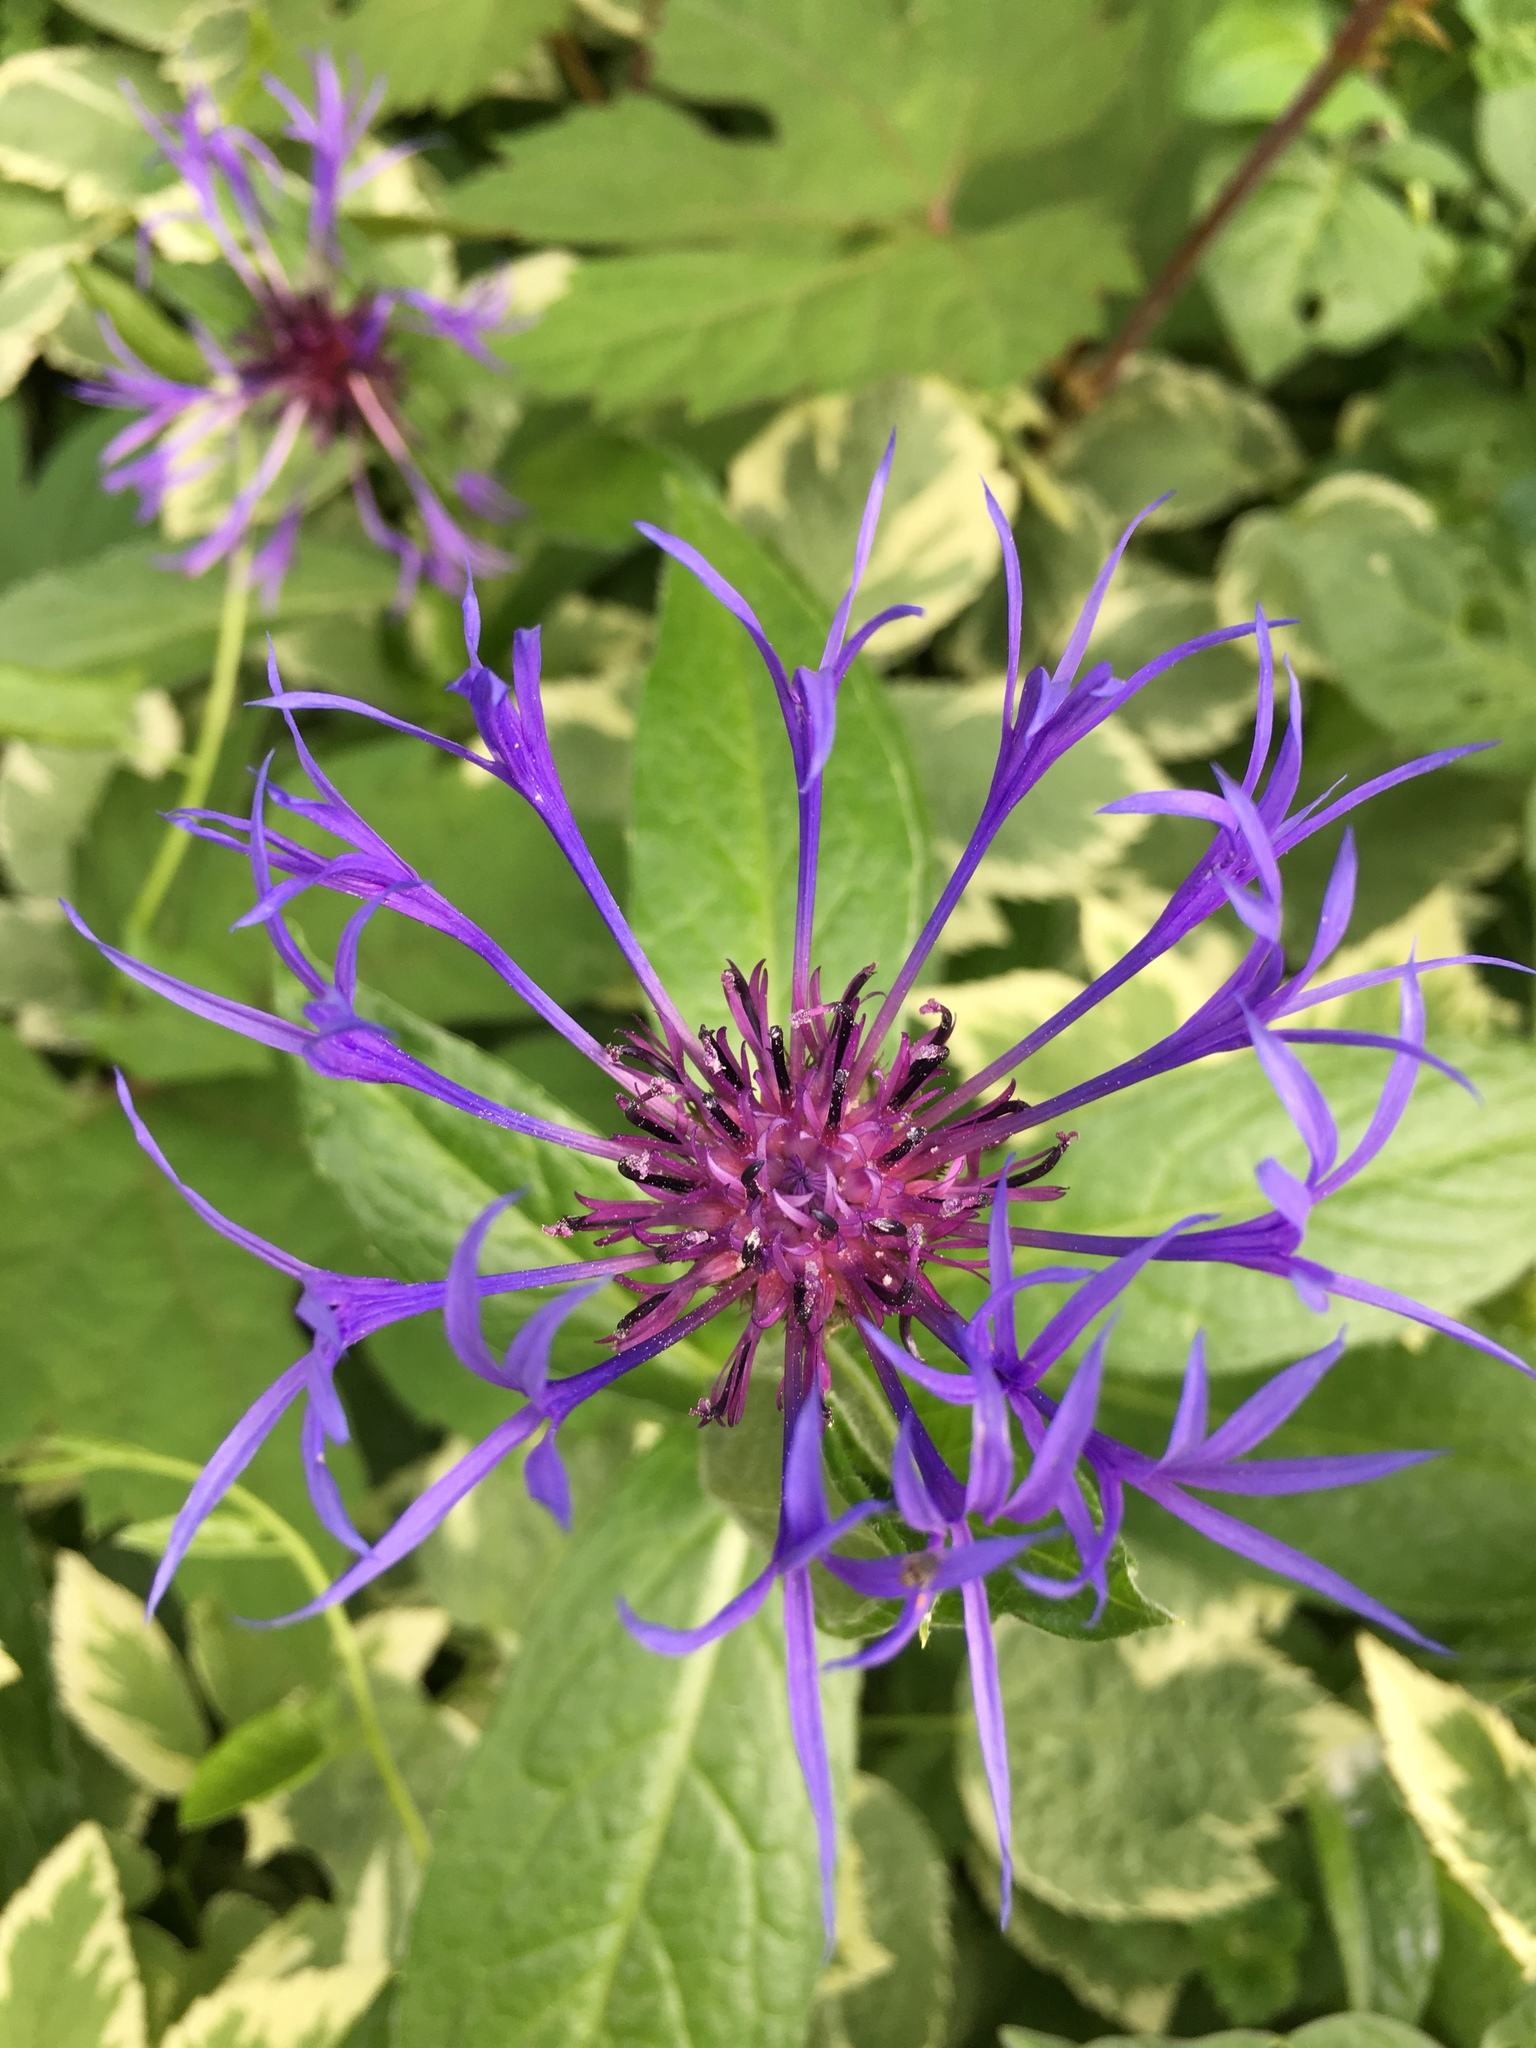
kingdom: Plantae
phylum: Tracheophyta
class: Magnoliopsida
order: Asterales
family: Asteraceae
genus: Centaurea
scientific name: Centaurea montana
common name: Perennial cornflower
